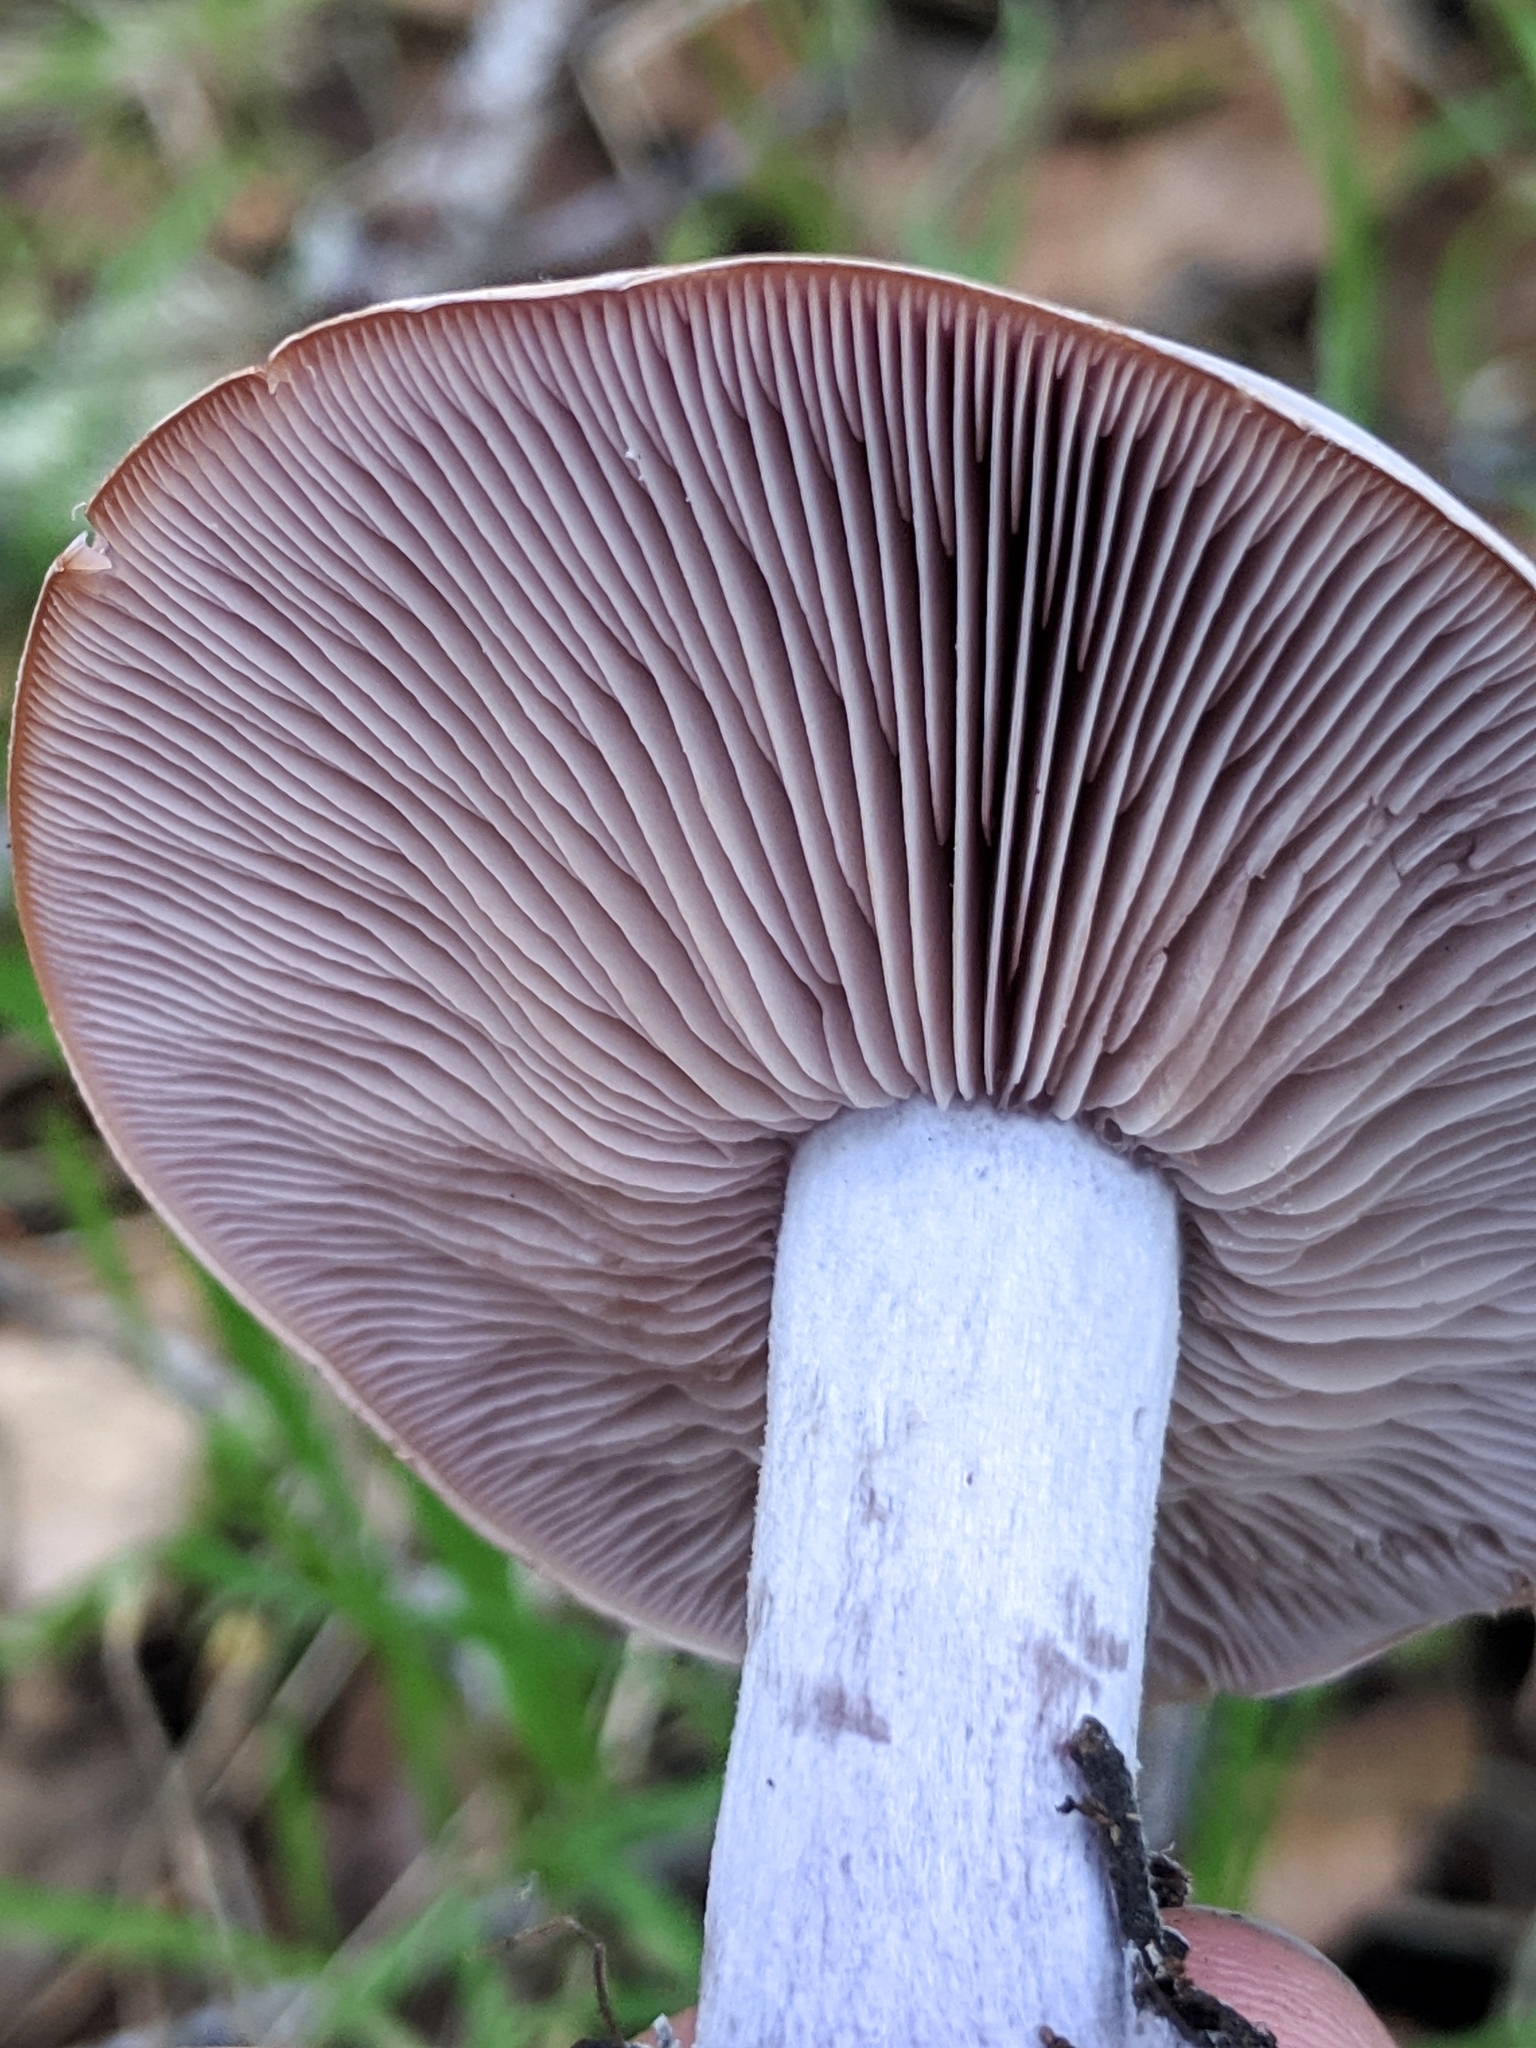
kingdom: Fungi
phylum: Basidiomycota
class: Agaricomycetes
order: Agaricales
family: Tricholomataceae
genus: Collybia
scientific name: Collybia
